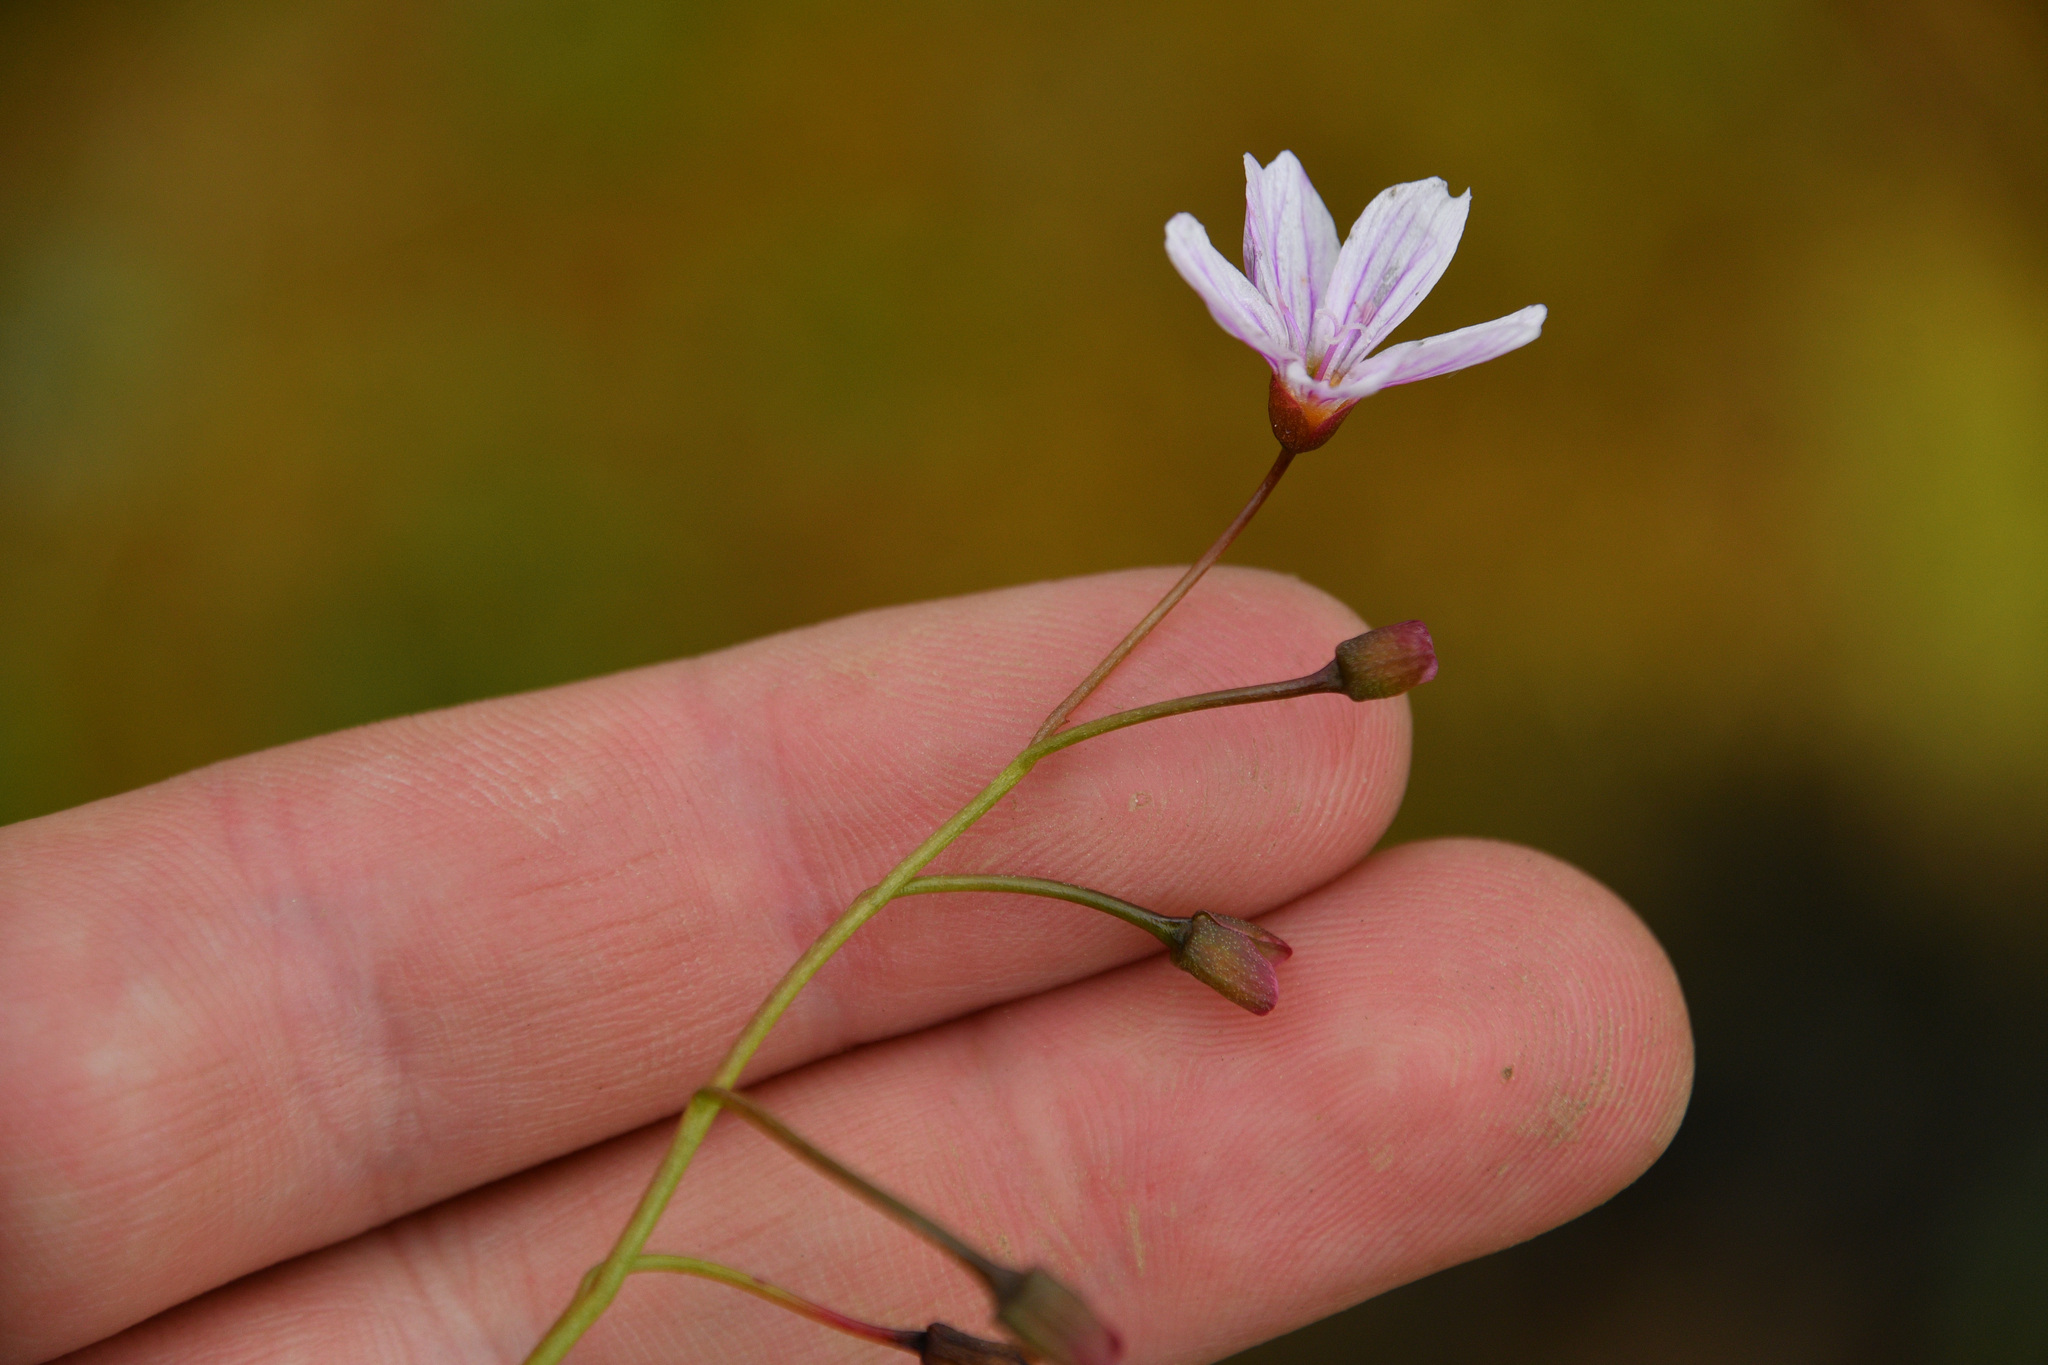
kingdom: Plantae
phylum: Tracheophyta
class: Magnoliopsida
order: Caryophyllales
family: Montiaceae
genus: Claytonia
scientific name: Claytonia sarmentosa
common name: Alaska spring beauty
